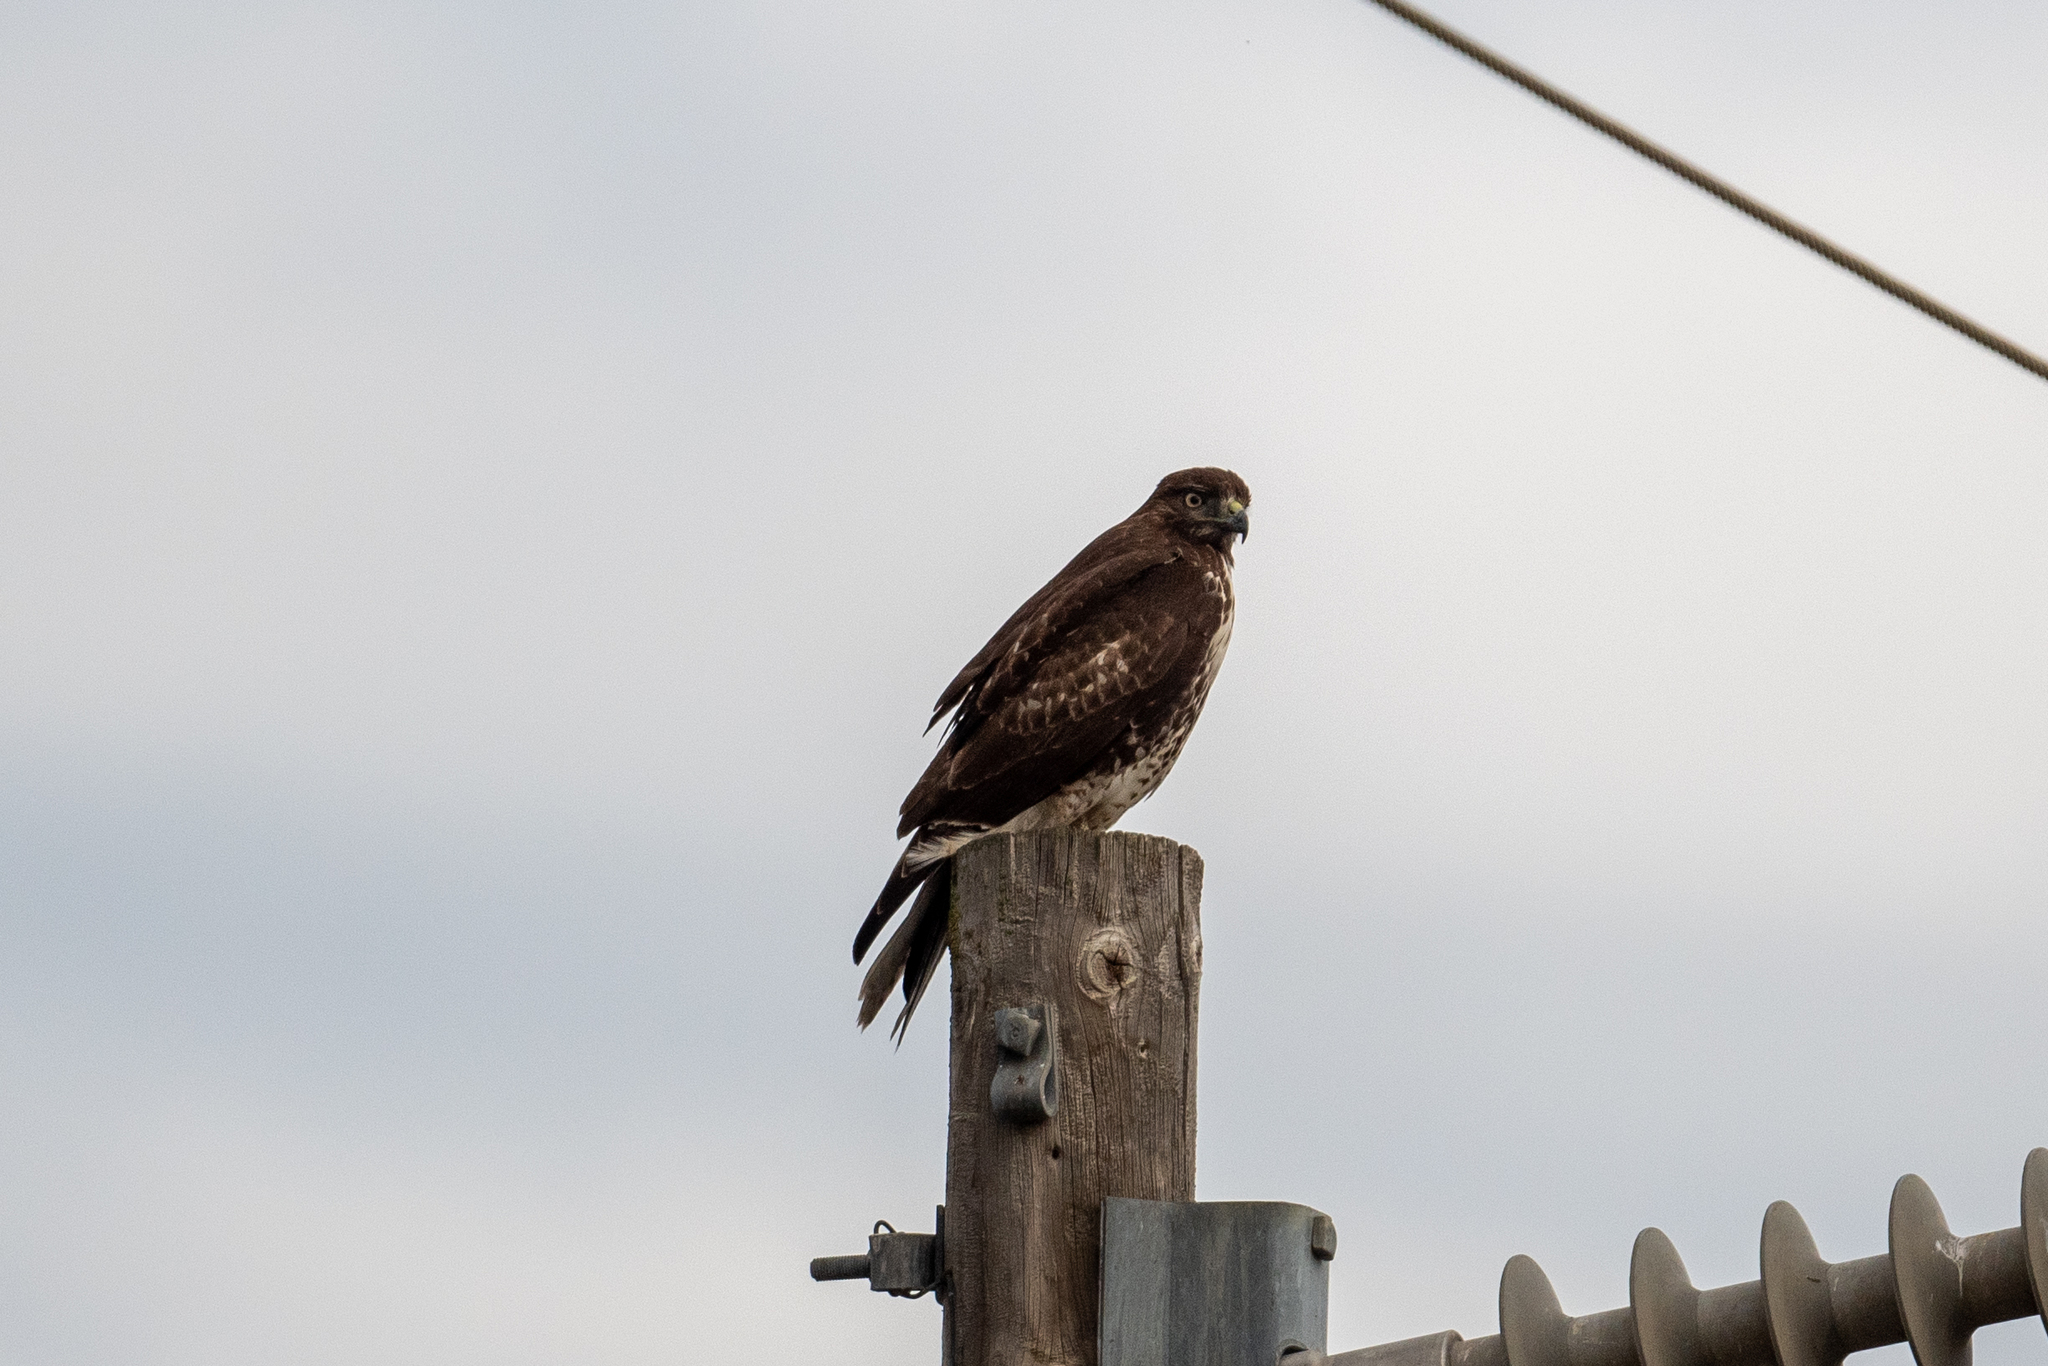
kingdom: Animalia
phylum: Chordata
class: Aves
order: Accipitriformes
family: Accipitridae
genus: Buteo
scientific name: Buteo jamaicensis
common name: Red-tailed hawk
